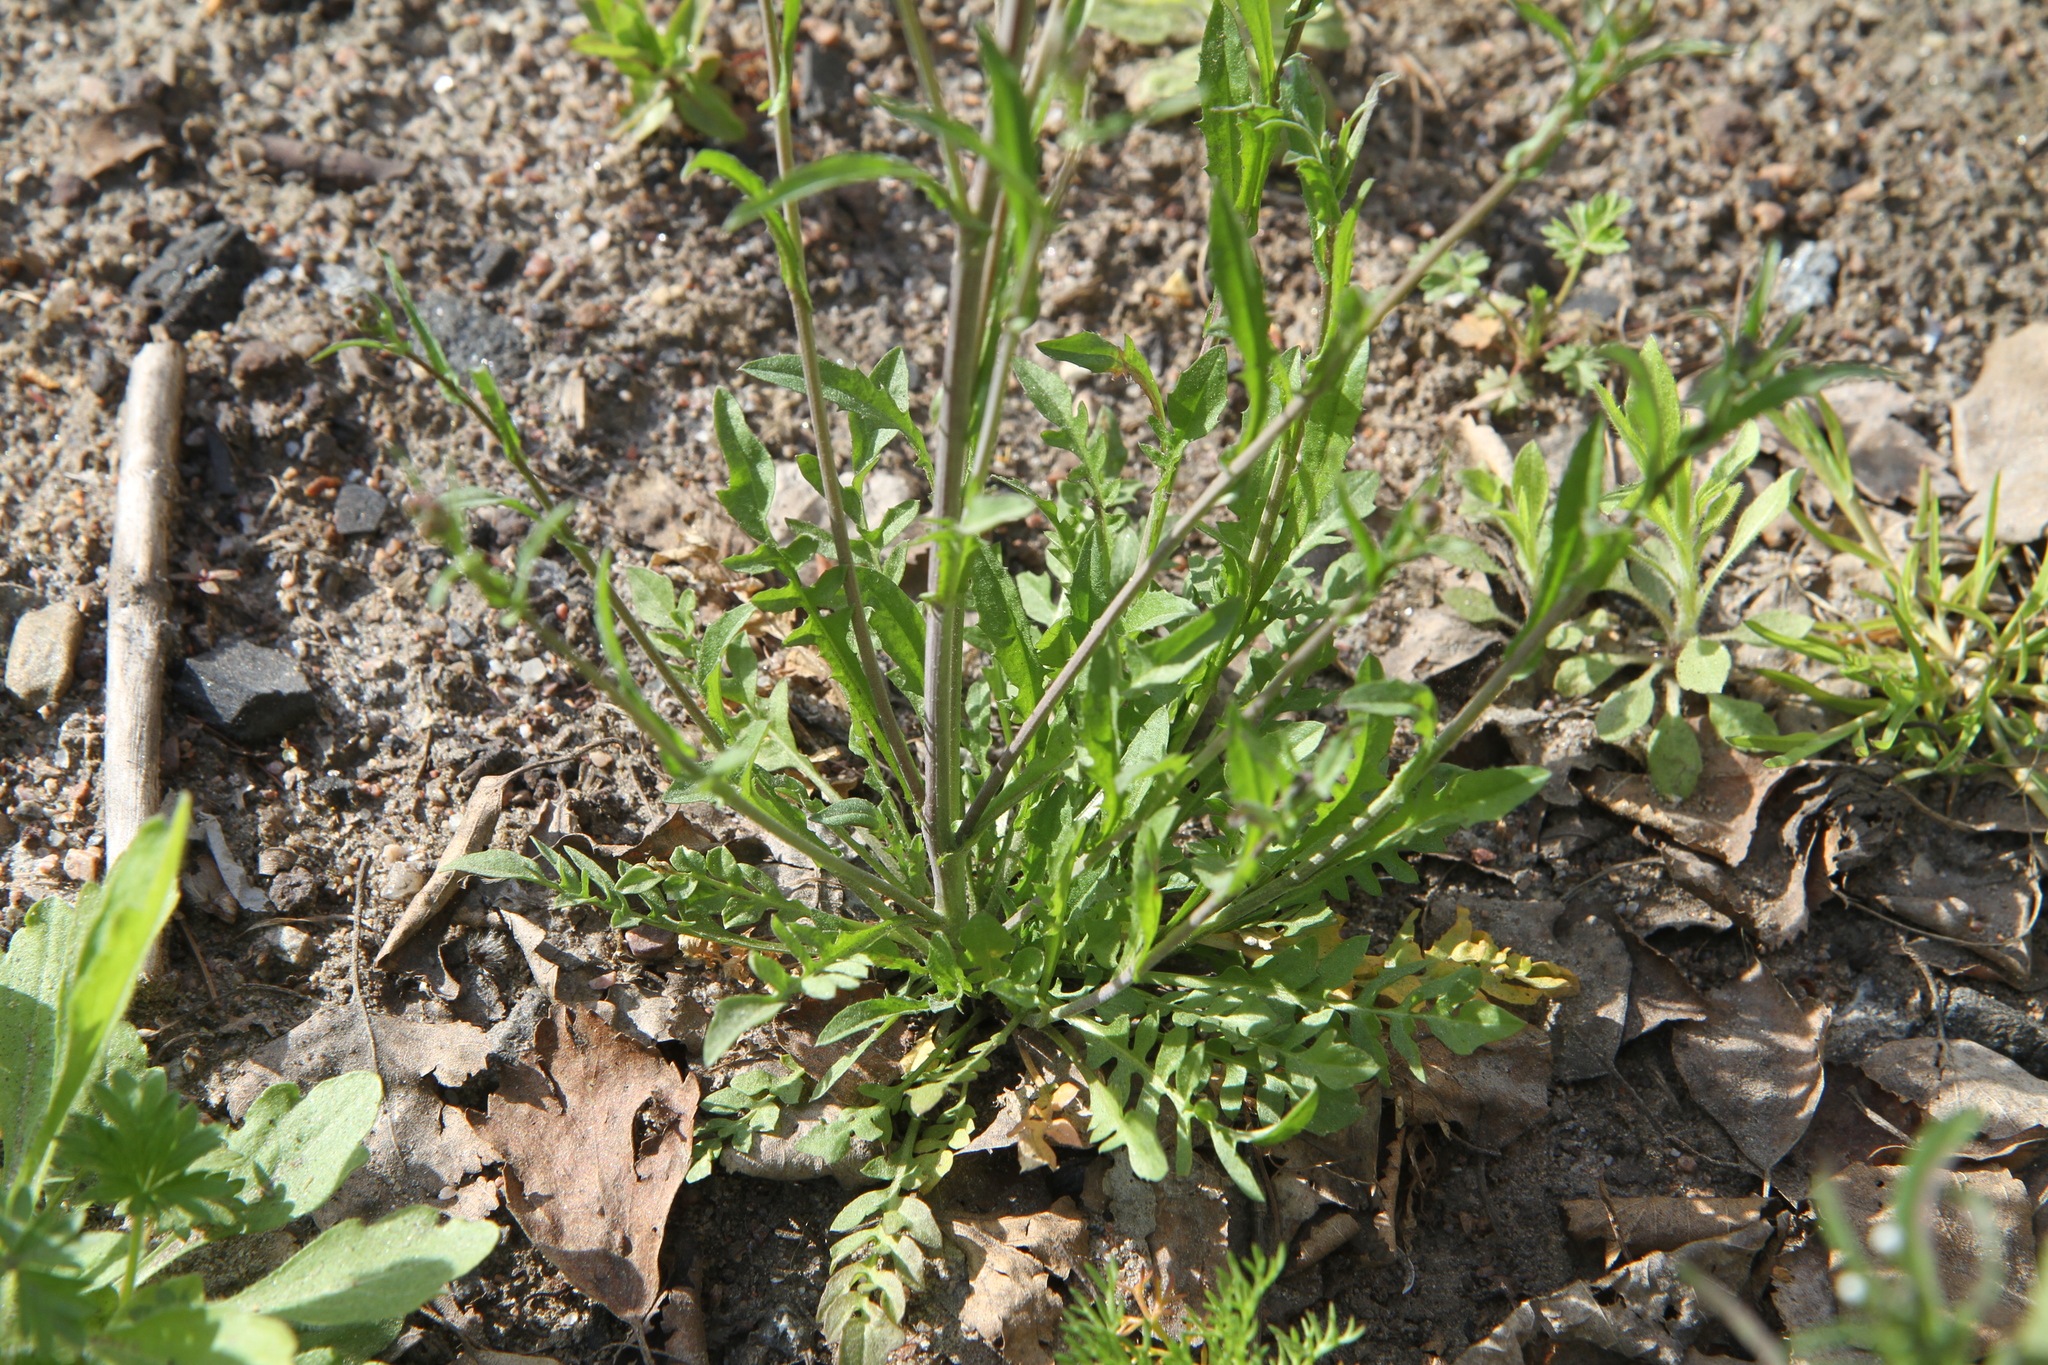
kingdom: Plantae
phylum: Tracheophyta
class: Magnoliopsida
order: Brassicales
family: Brassicaceae
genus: Capsella
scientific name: Capsella bursa-pastoris
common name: Shepherd's purse
